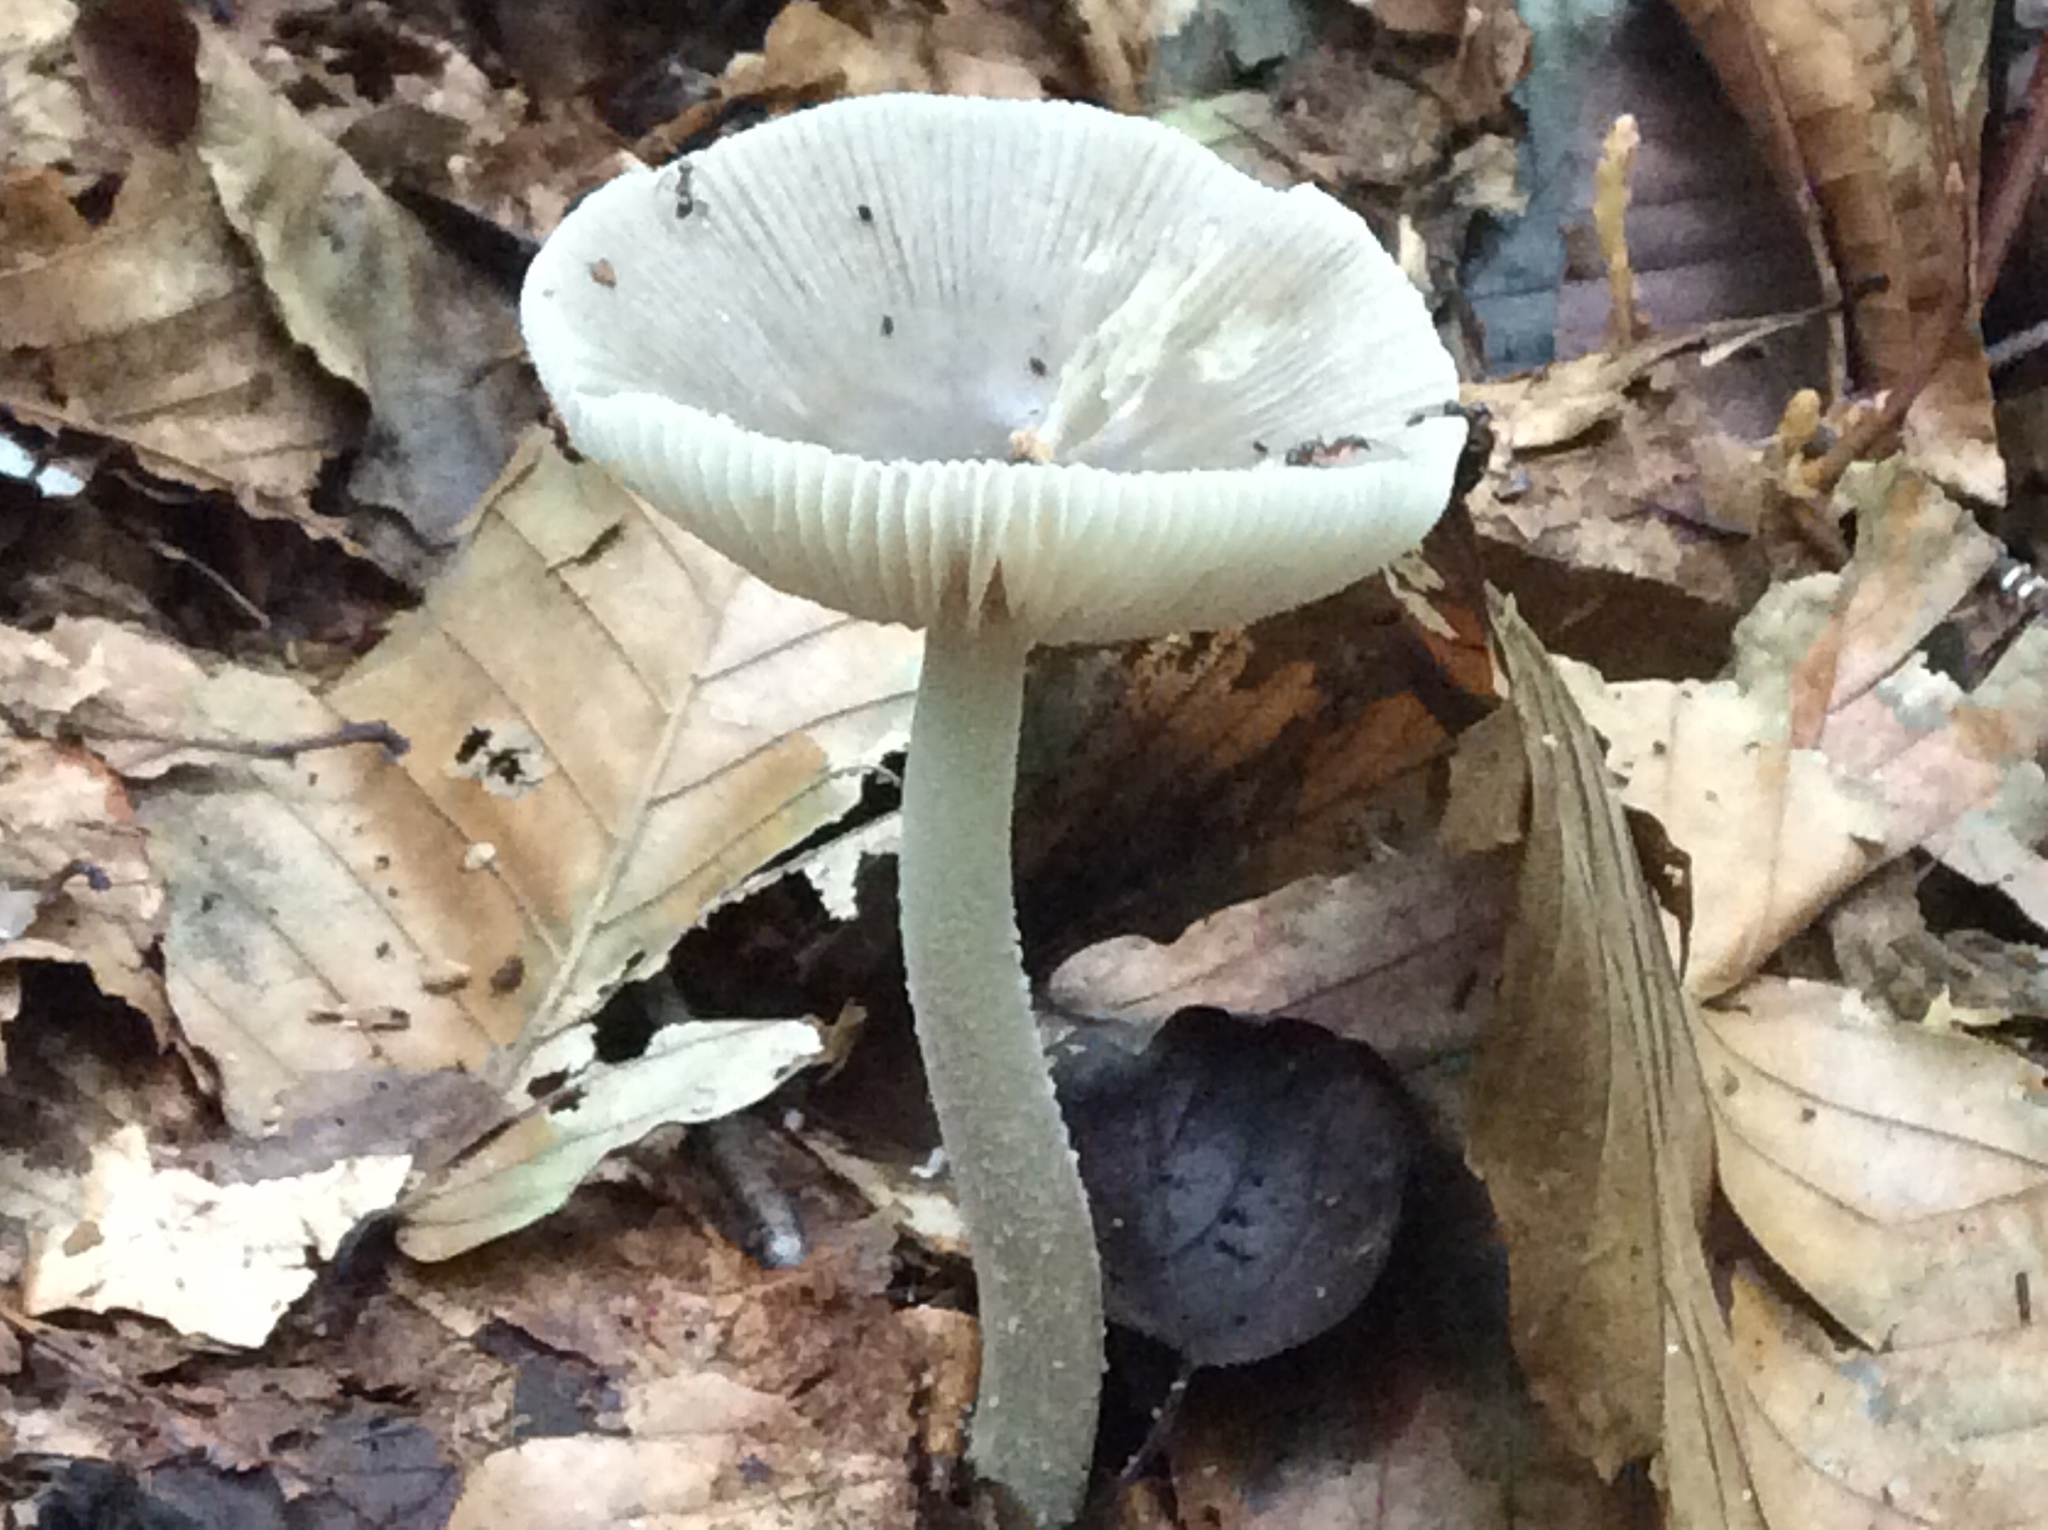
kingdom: Fungi
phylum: Basidiomycota
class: Agaricomycetes
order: Agaricales
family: Amanitaceae
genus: Amanita
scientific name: Amanita vaginata
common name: Grisette
